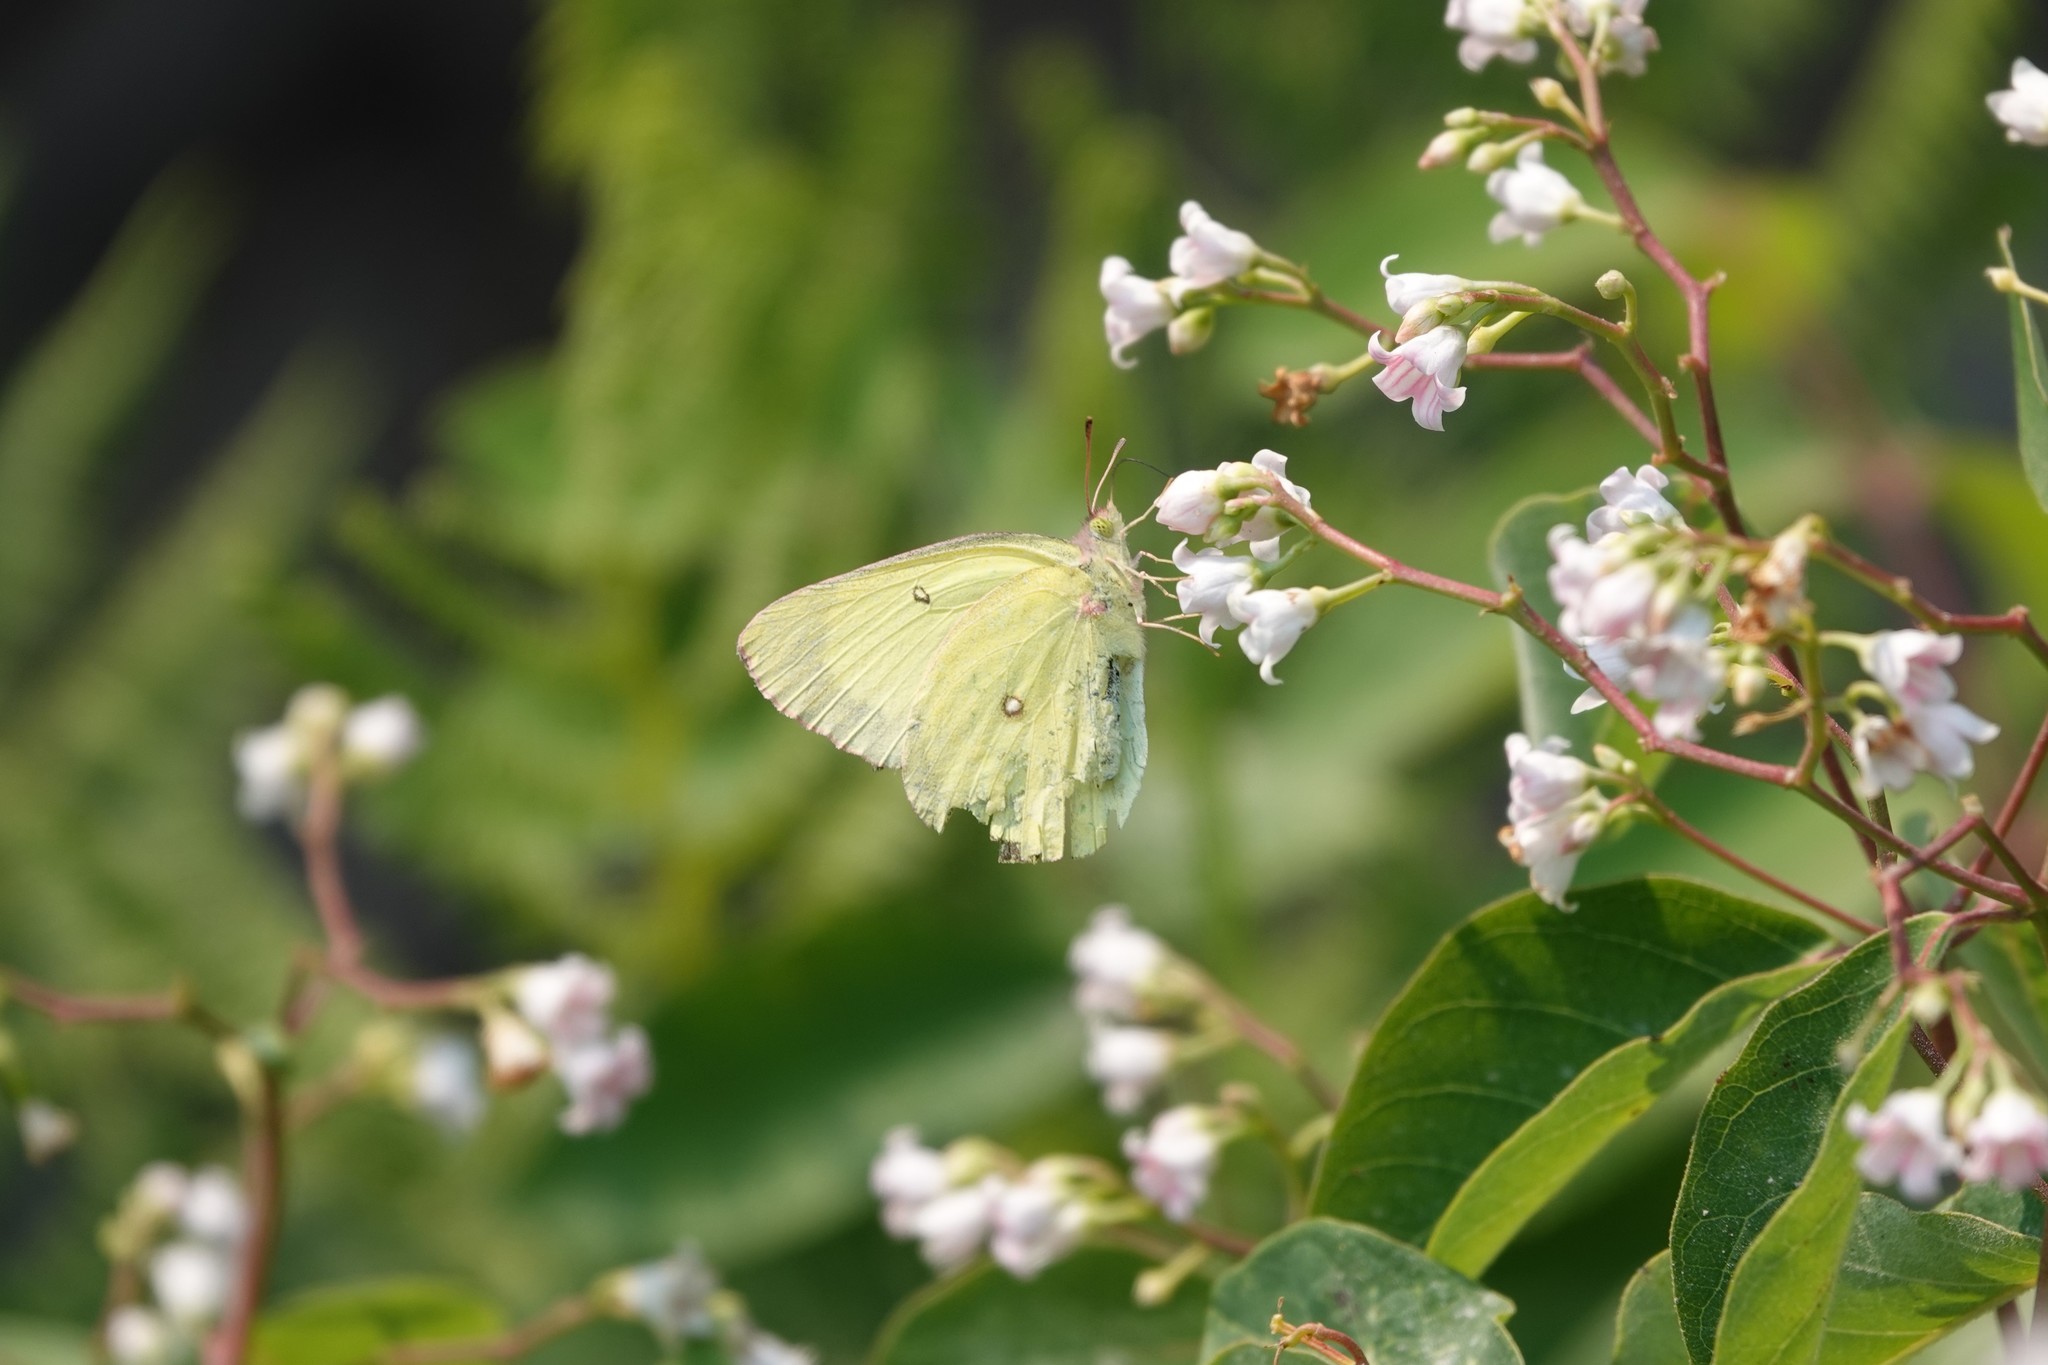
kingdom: Animalia
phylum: Arthropoda
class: Insecta
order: Lepidoptera
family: Pieridae
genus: Colias
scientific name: Colias interior
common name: Pink-edged sulphur
